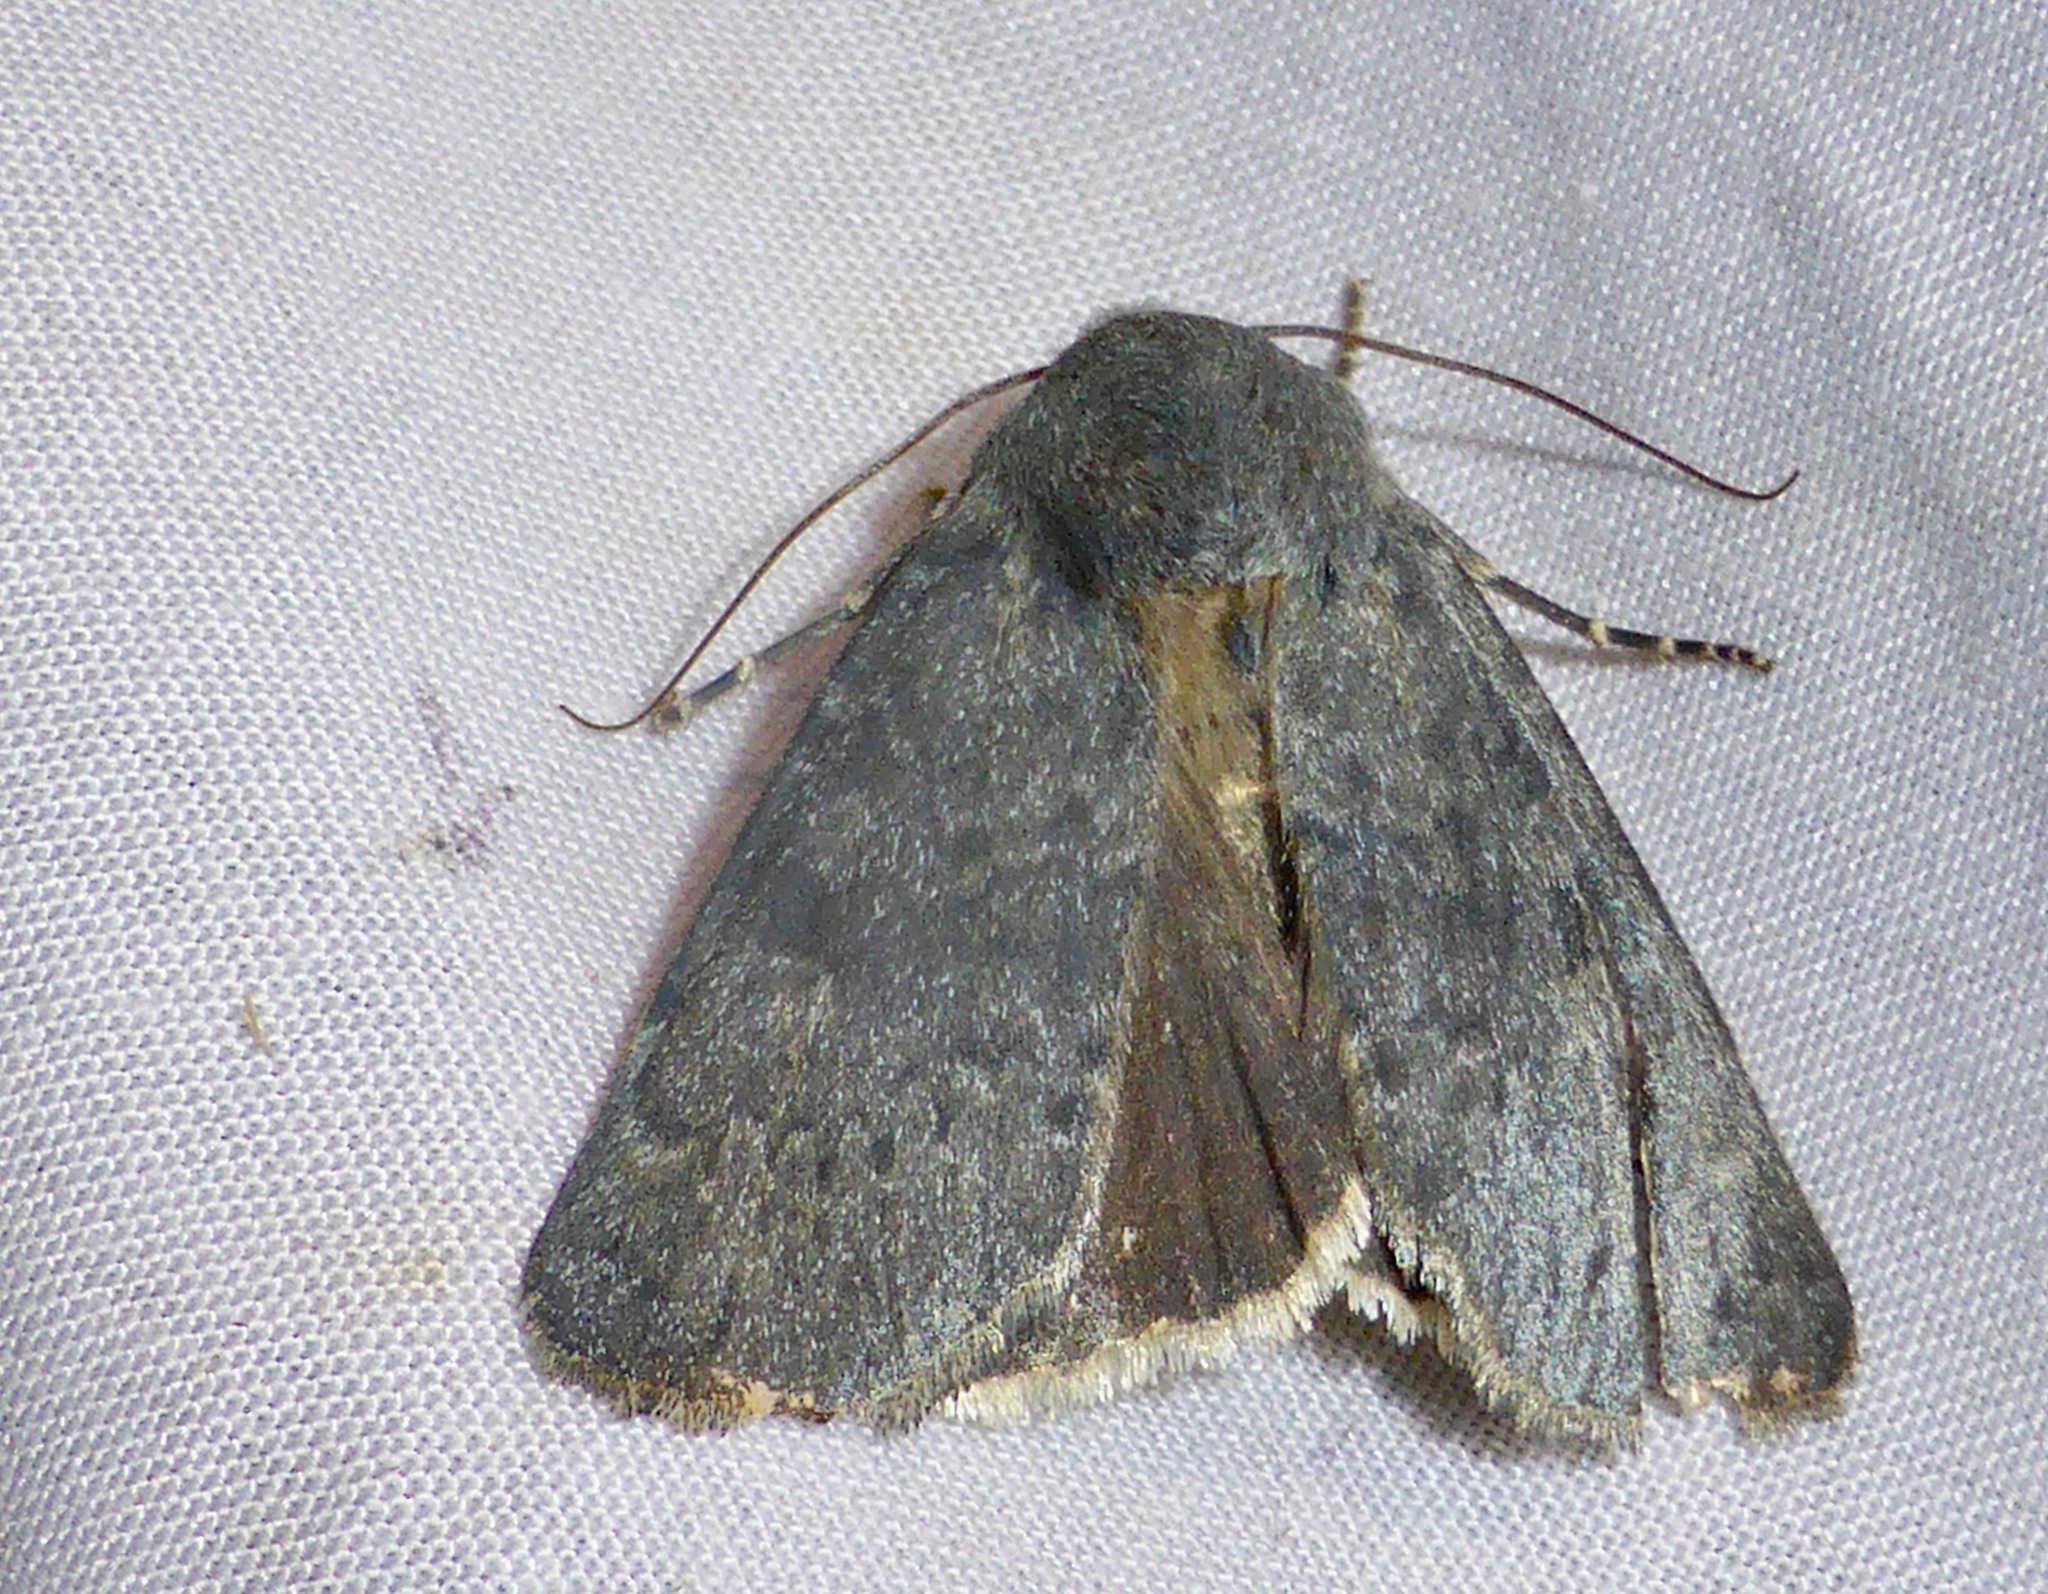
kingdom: Animalia
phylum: Arthropoda
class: Insecta
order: Lepidoptera
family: Noctuidae
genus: Physetica
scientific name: Physetica caerulea
